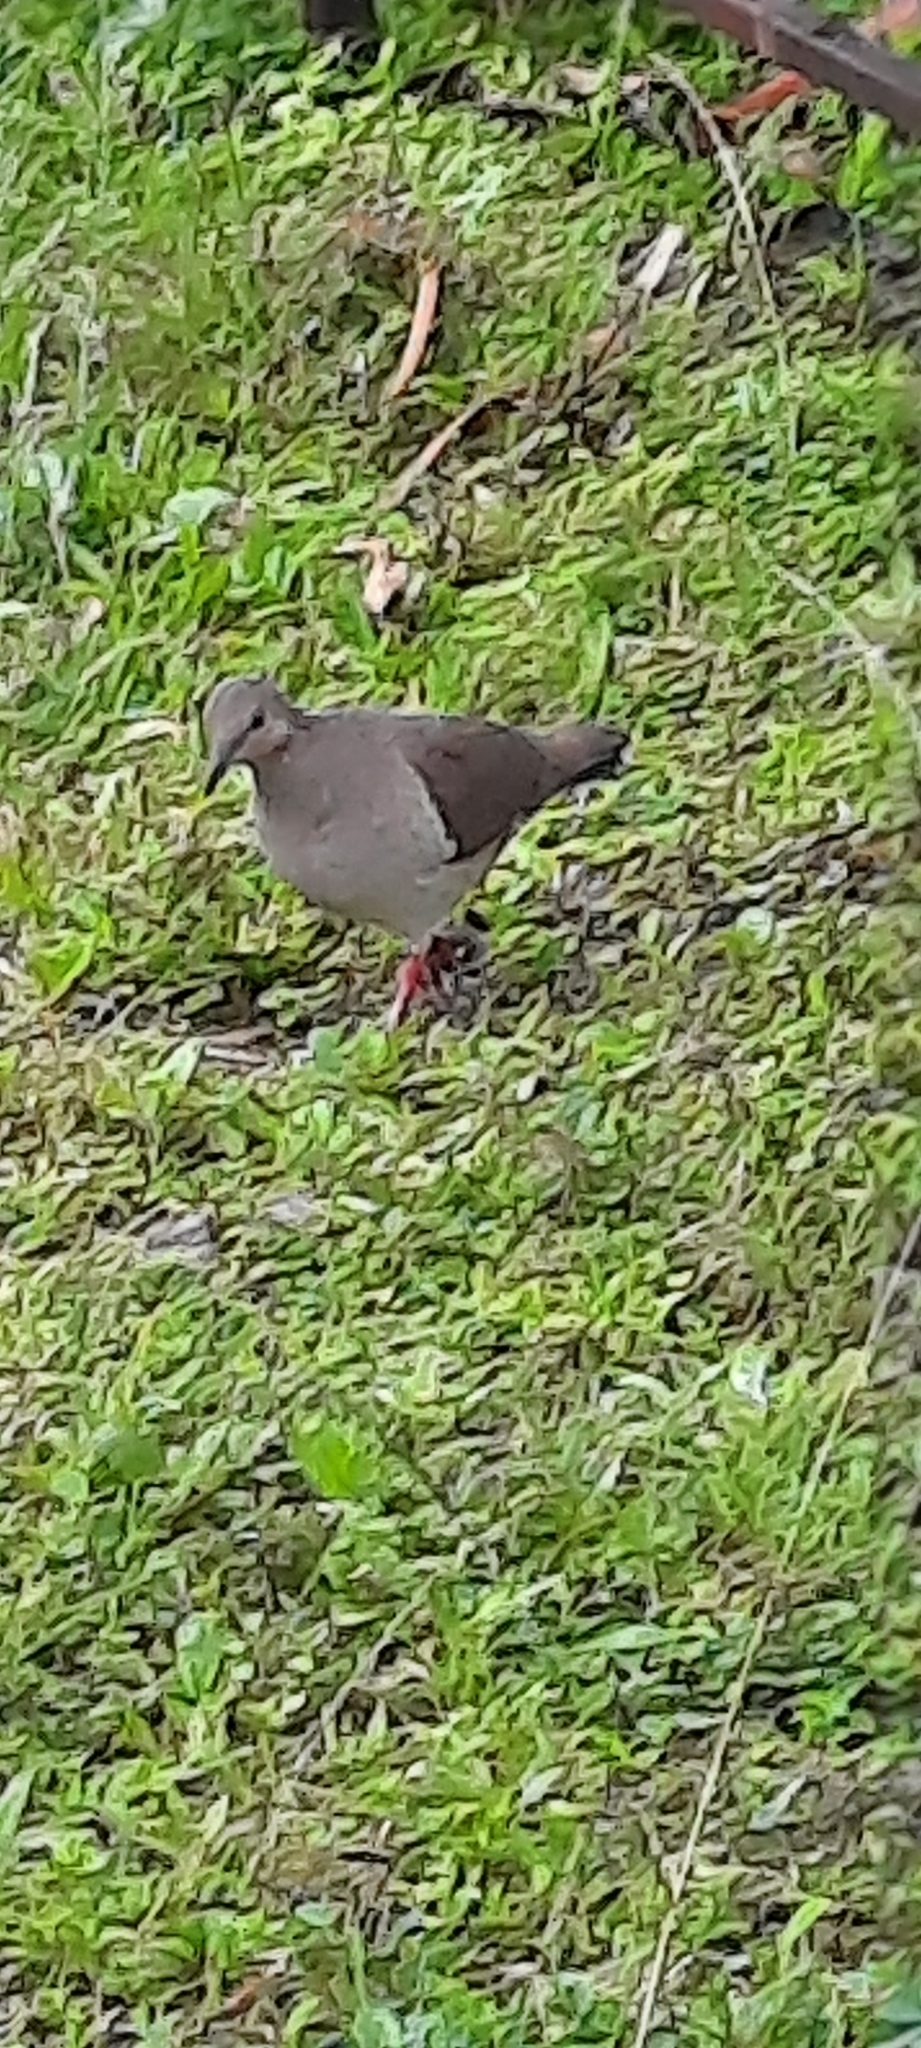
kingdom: Animalia
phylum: Chordata
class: Aves
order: Columbiformes
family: Columbidae
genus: Leptotila
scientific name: Leptotila verreauxi
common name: White-tipped dove
